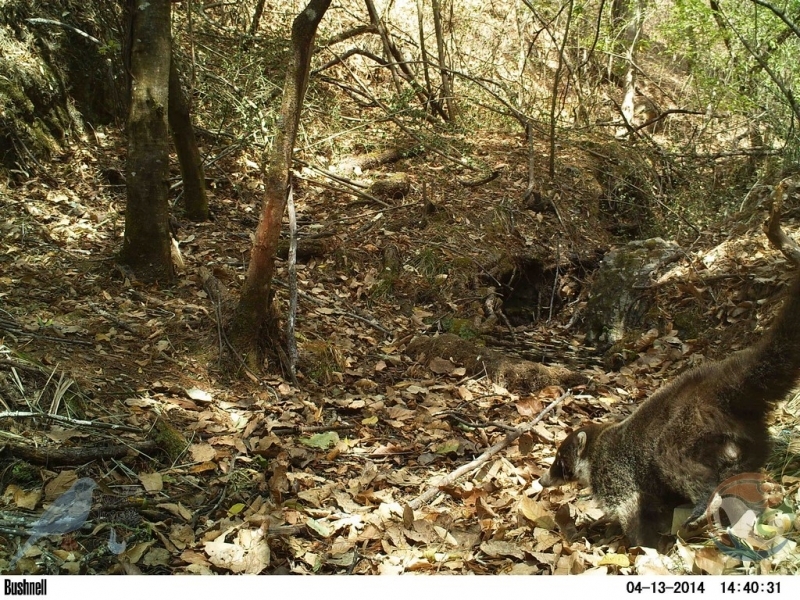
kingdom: Animalia
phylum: Chordata
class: Mammalia
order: Carnivora
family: Procyonidae
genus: Nasua
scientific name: Nasua narica
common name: White-nosed coati
